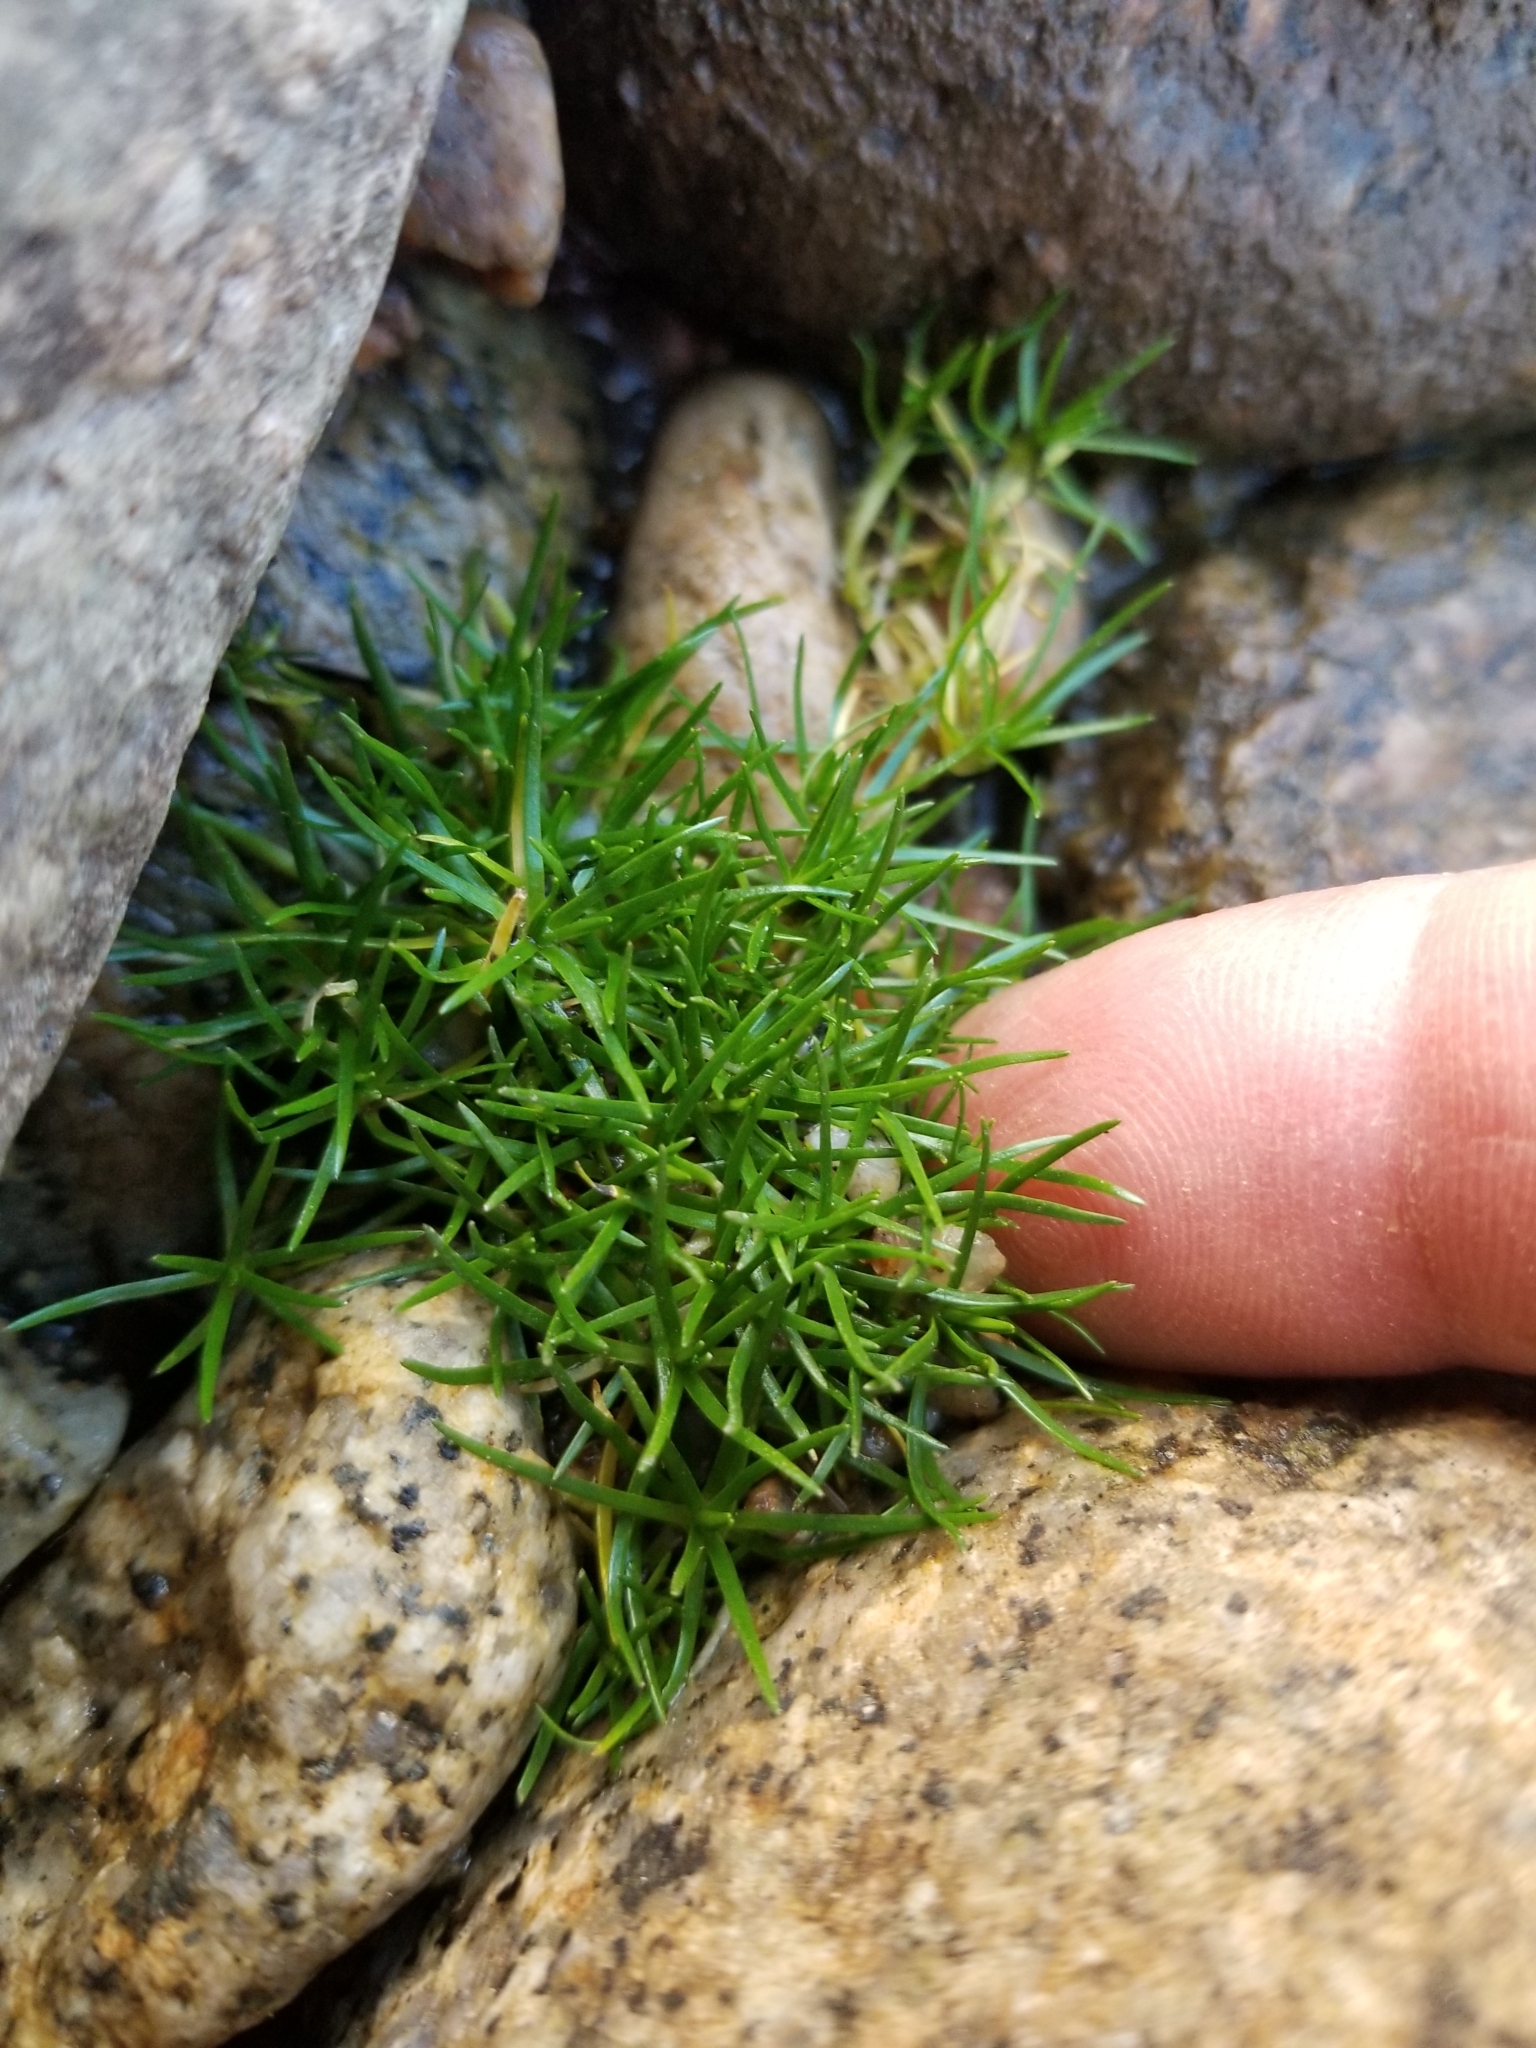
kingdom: Plantae
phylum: Tracheophyta
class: Magnoliopsida
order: Caryophyllales
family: Caryophyllaceae
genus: Sagina
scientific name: Sagina procumbens
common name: Procumbent pearlwort
